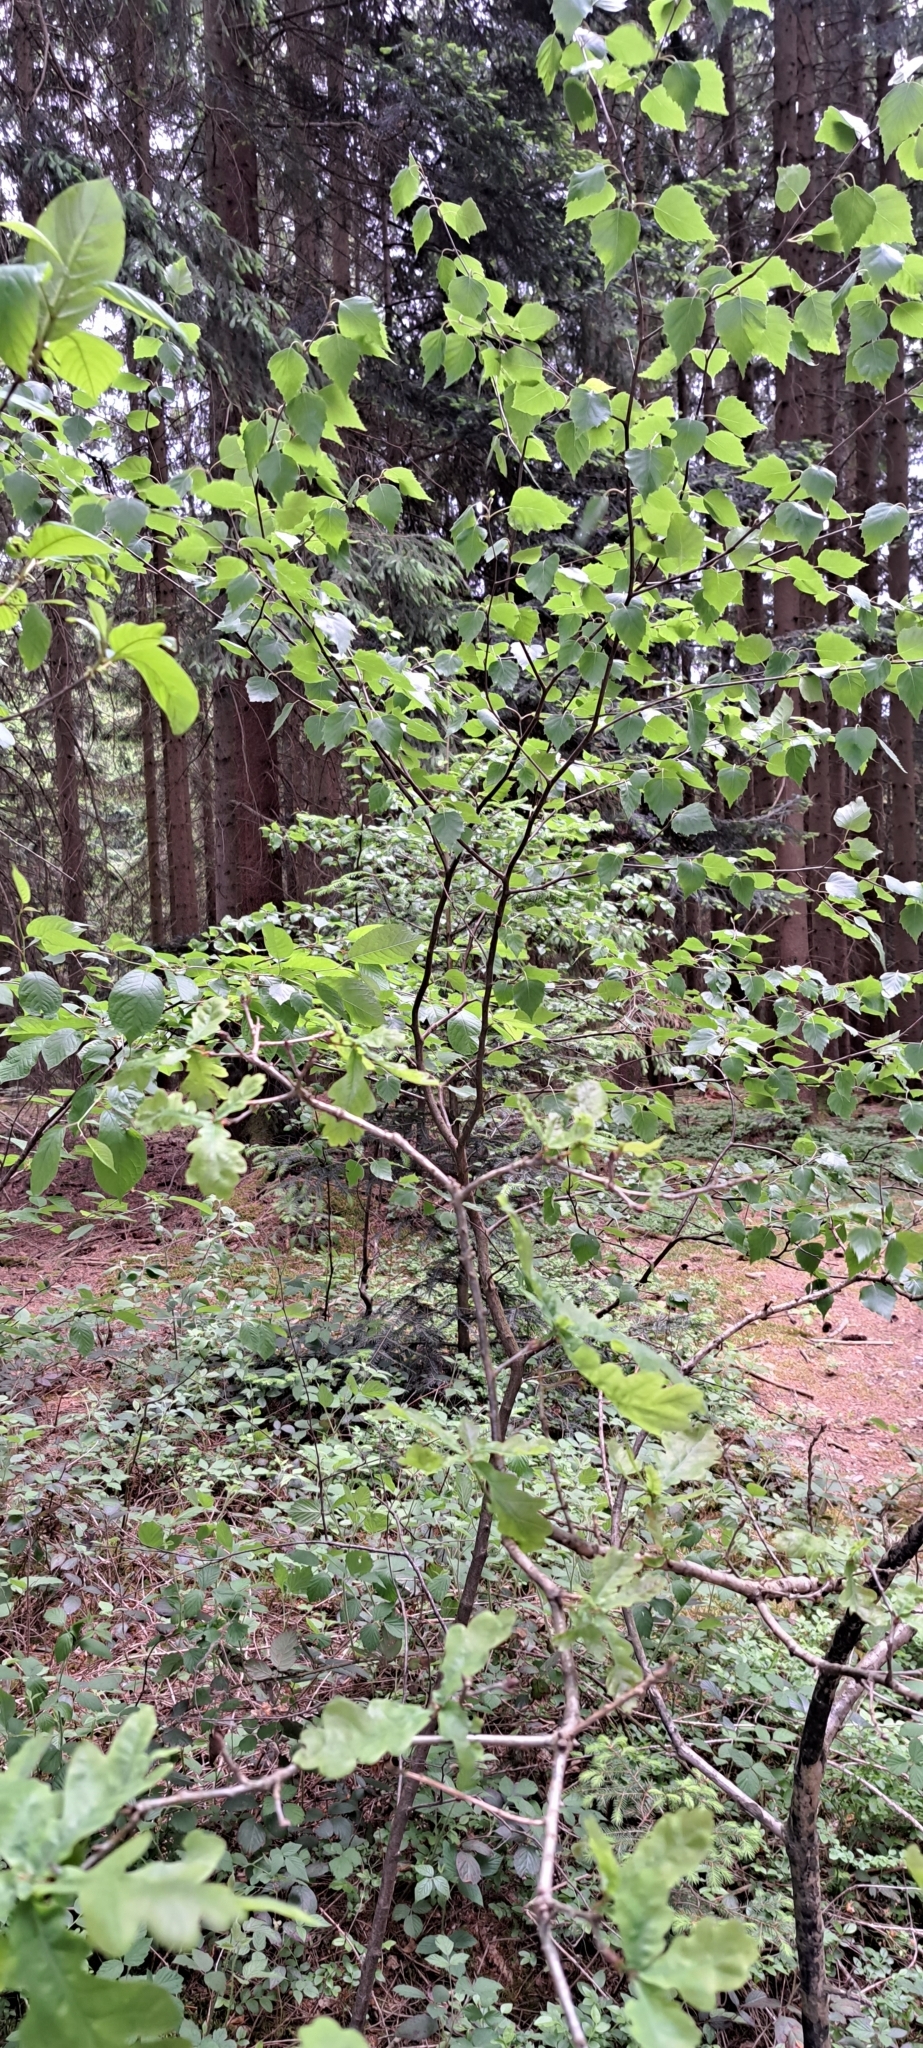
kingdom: Plantae
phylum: Tracheophyta
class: Magnoliopsida
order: Fagales
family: Betulaceae
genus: Betula
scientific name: Betula pendula
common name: Silver birch
